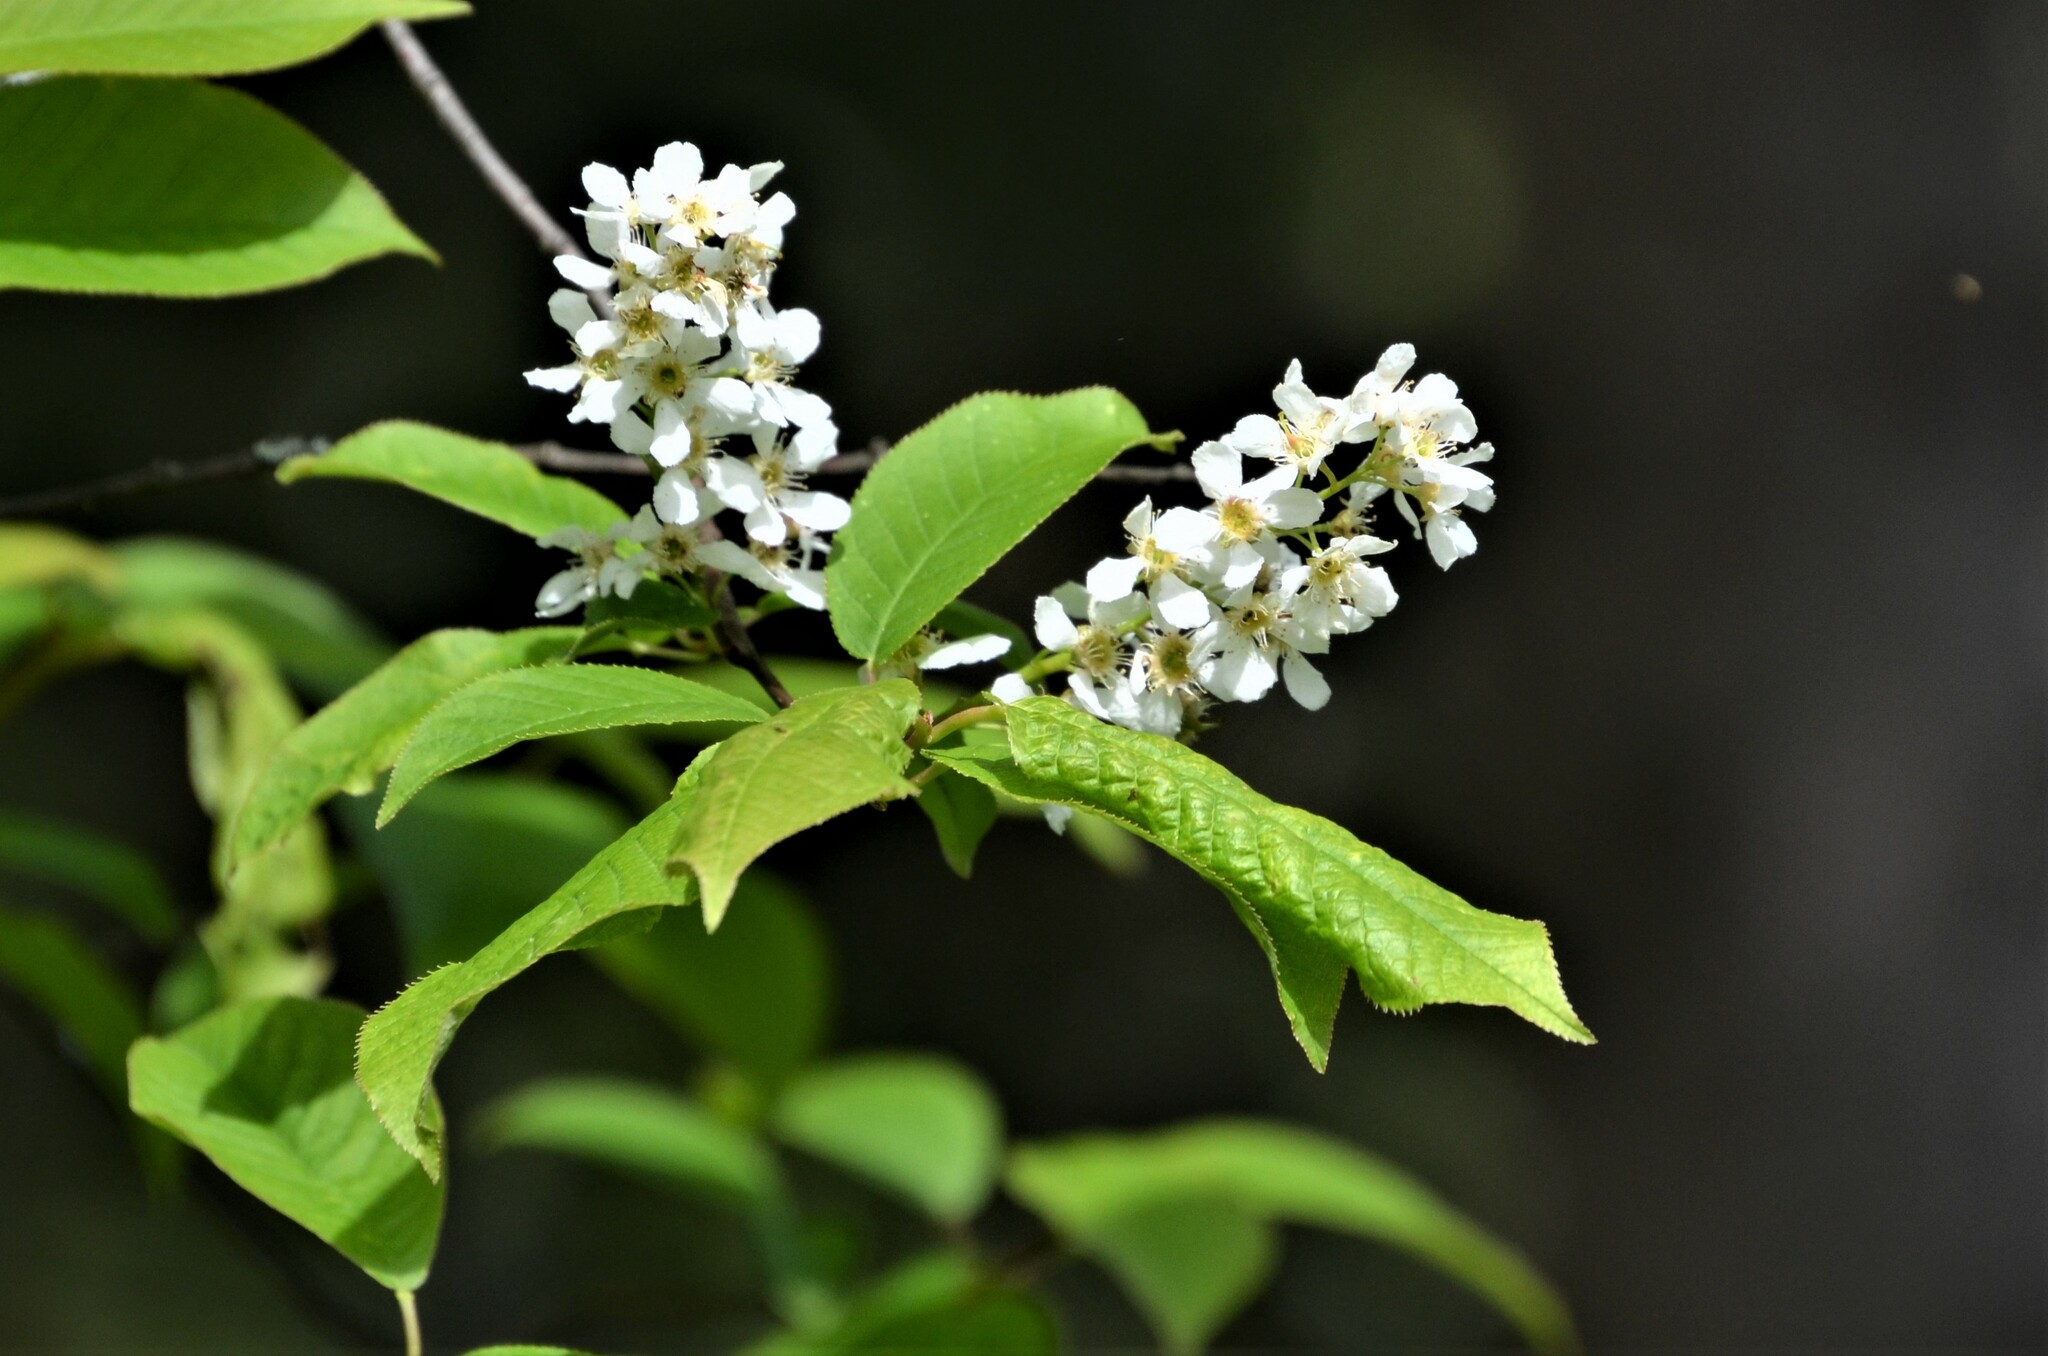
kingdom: Plantae
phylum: Tracheophyta
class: Magnoliopsida
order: Rosales
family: Rosaceae
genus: Prunus
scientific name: Prunus padus
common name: Bird cherry
